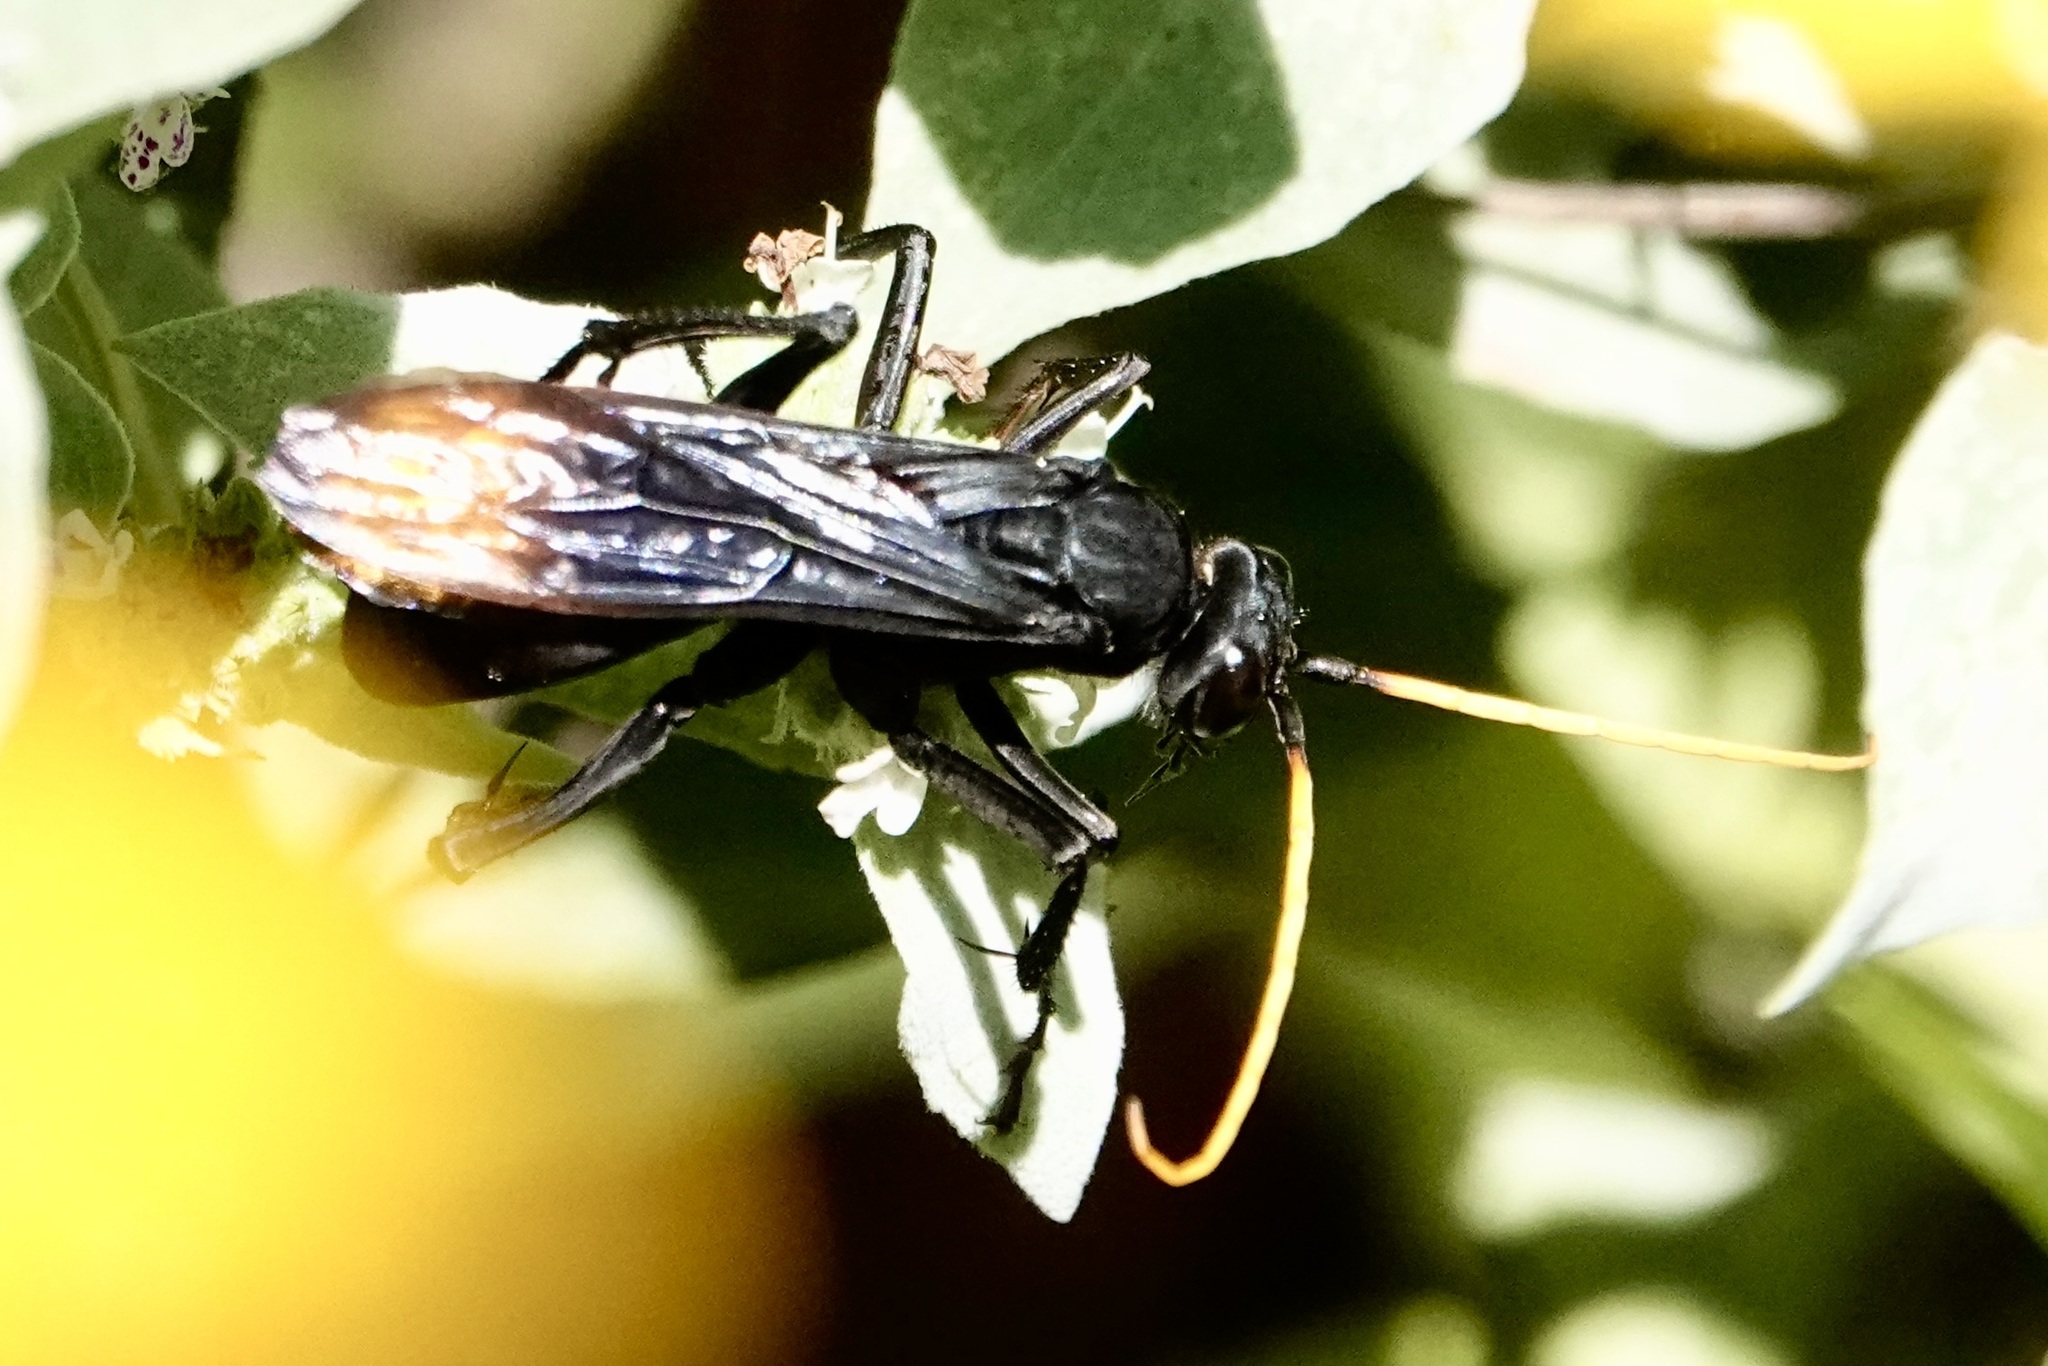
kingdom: Animalia
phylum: Arthropoda
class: Insecta
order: Hymenoptera
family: Pompilidae
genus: Entypus
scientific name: Entypus unifasciatus
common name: Eastern tawny-horned spider wasp
